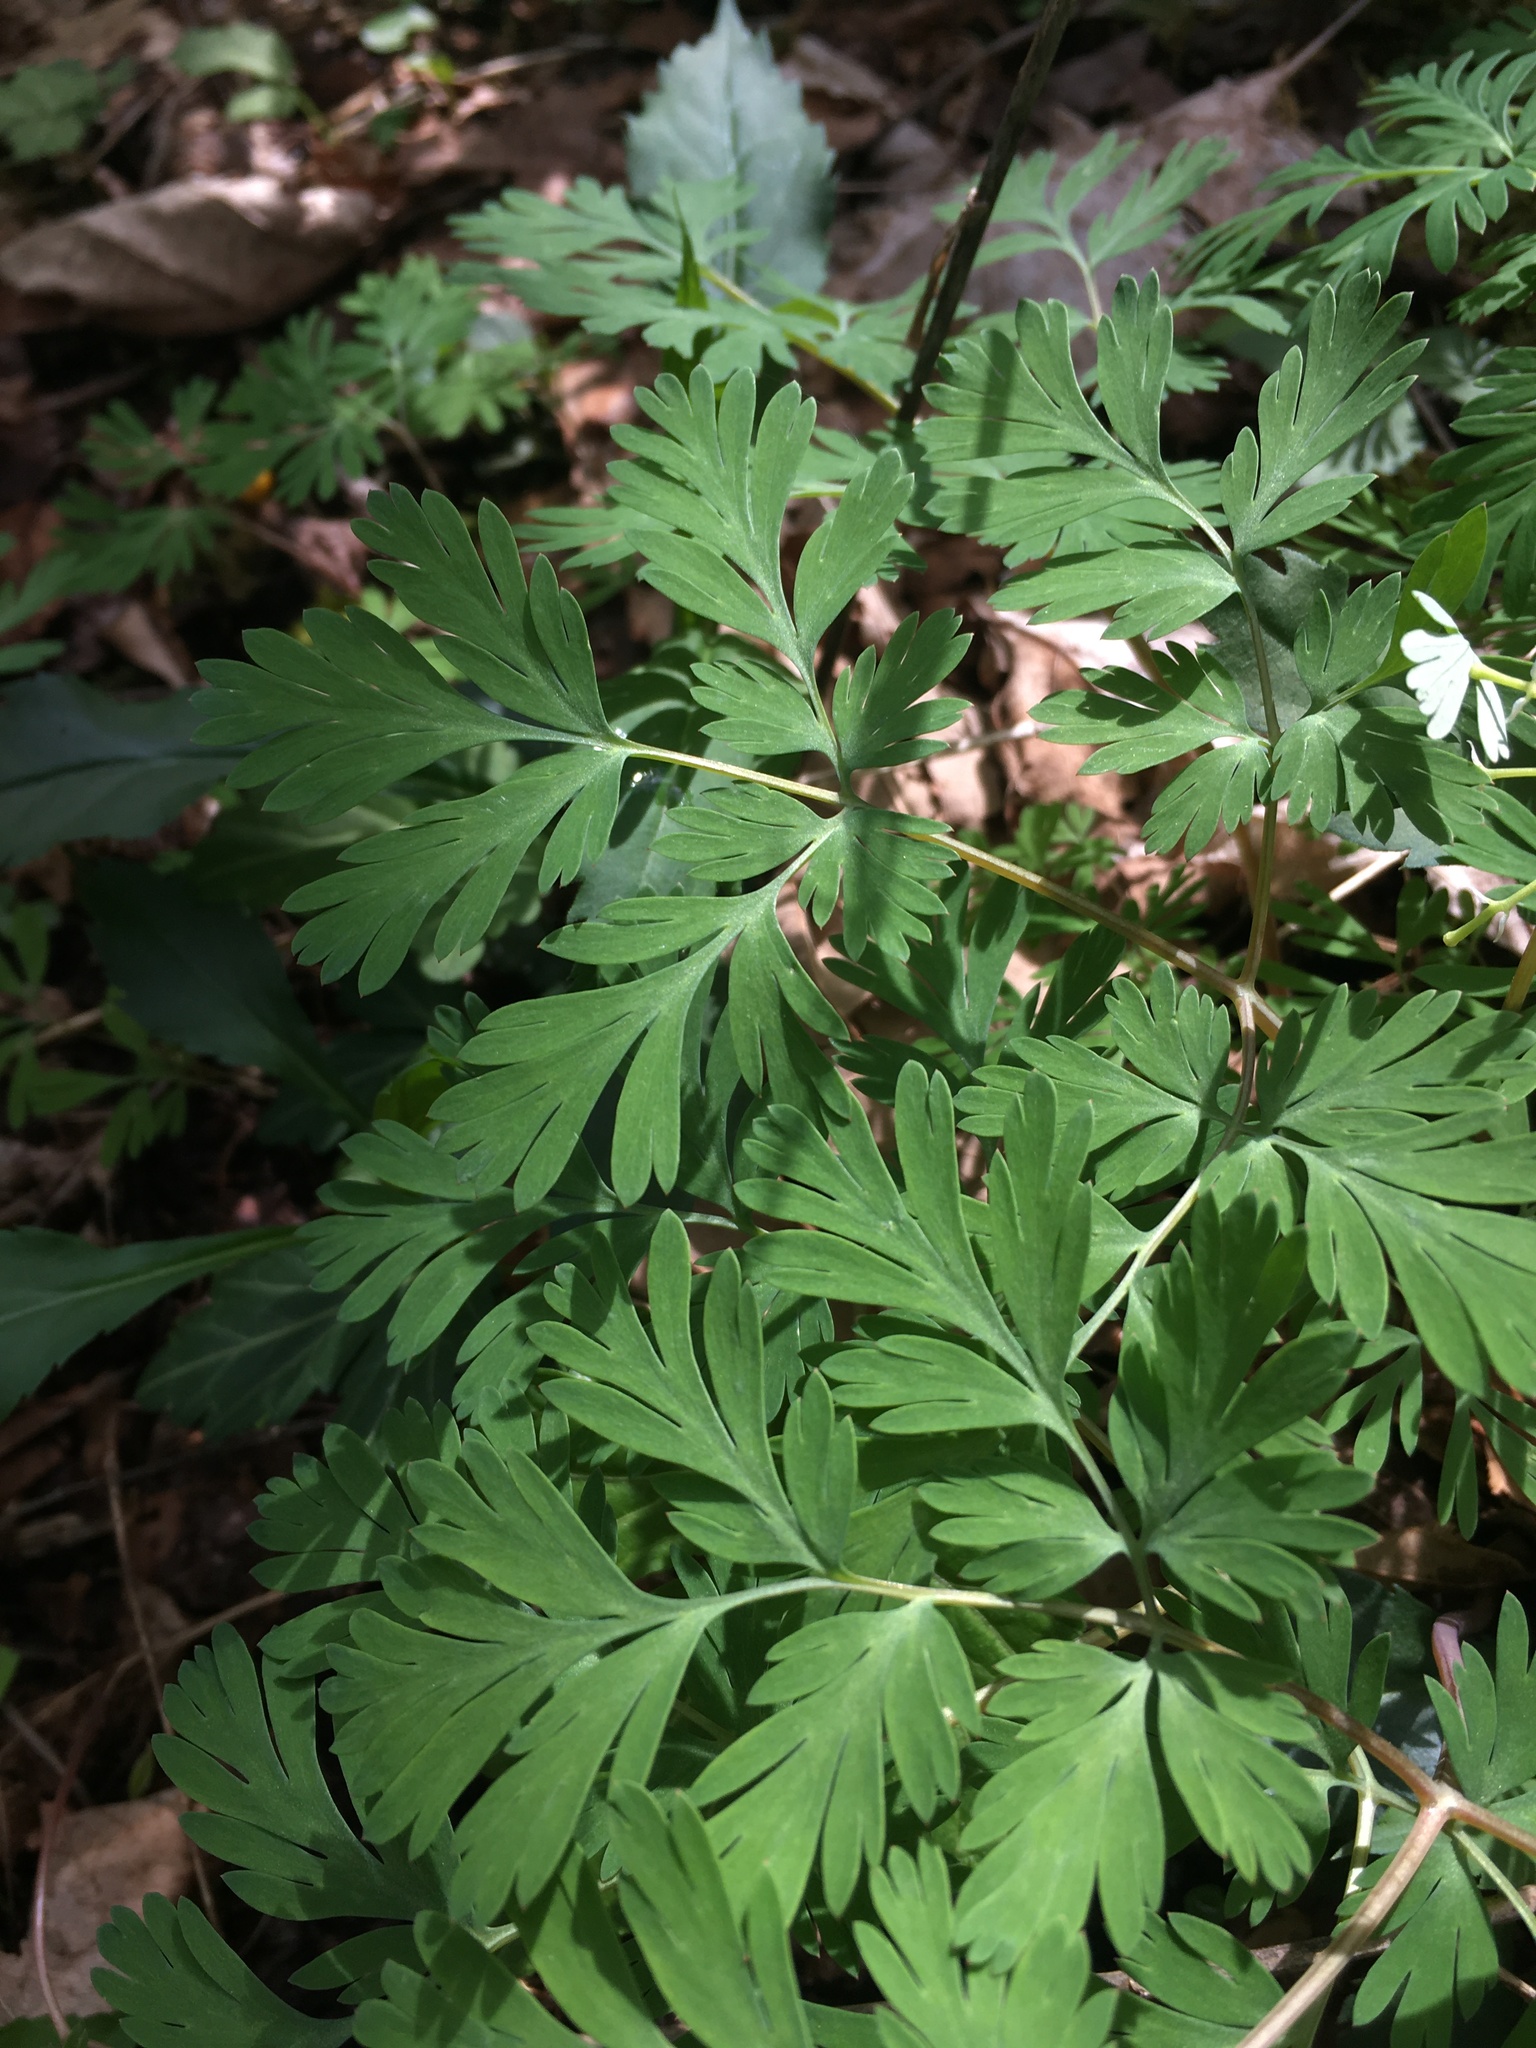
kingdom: Plantae
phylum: Tracheophyta
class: Magnoliopsida
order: Ranunculales
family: Papaveraceae
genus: Dicentra
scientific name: Dicentra cucullaria
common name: Dutchman's breeches
